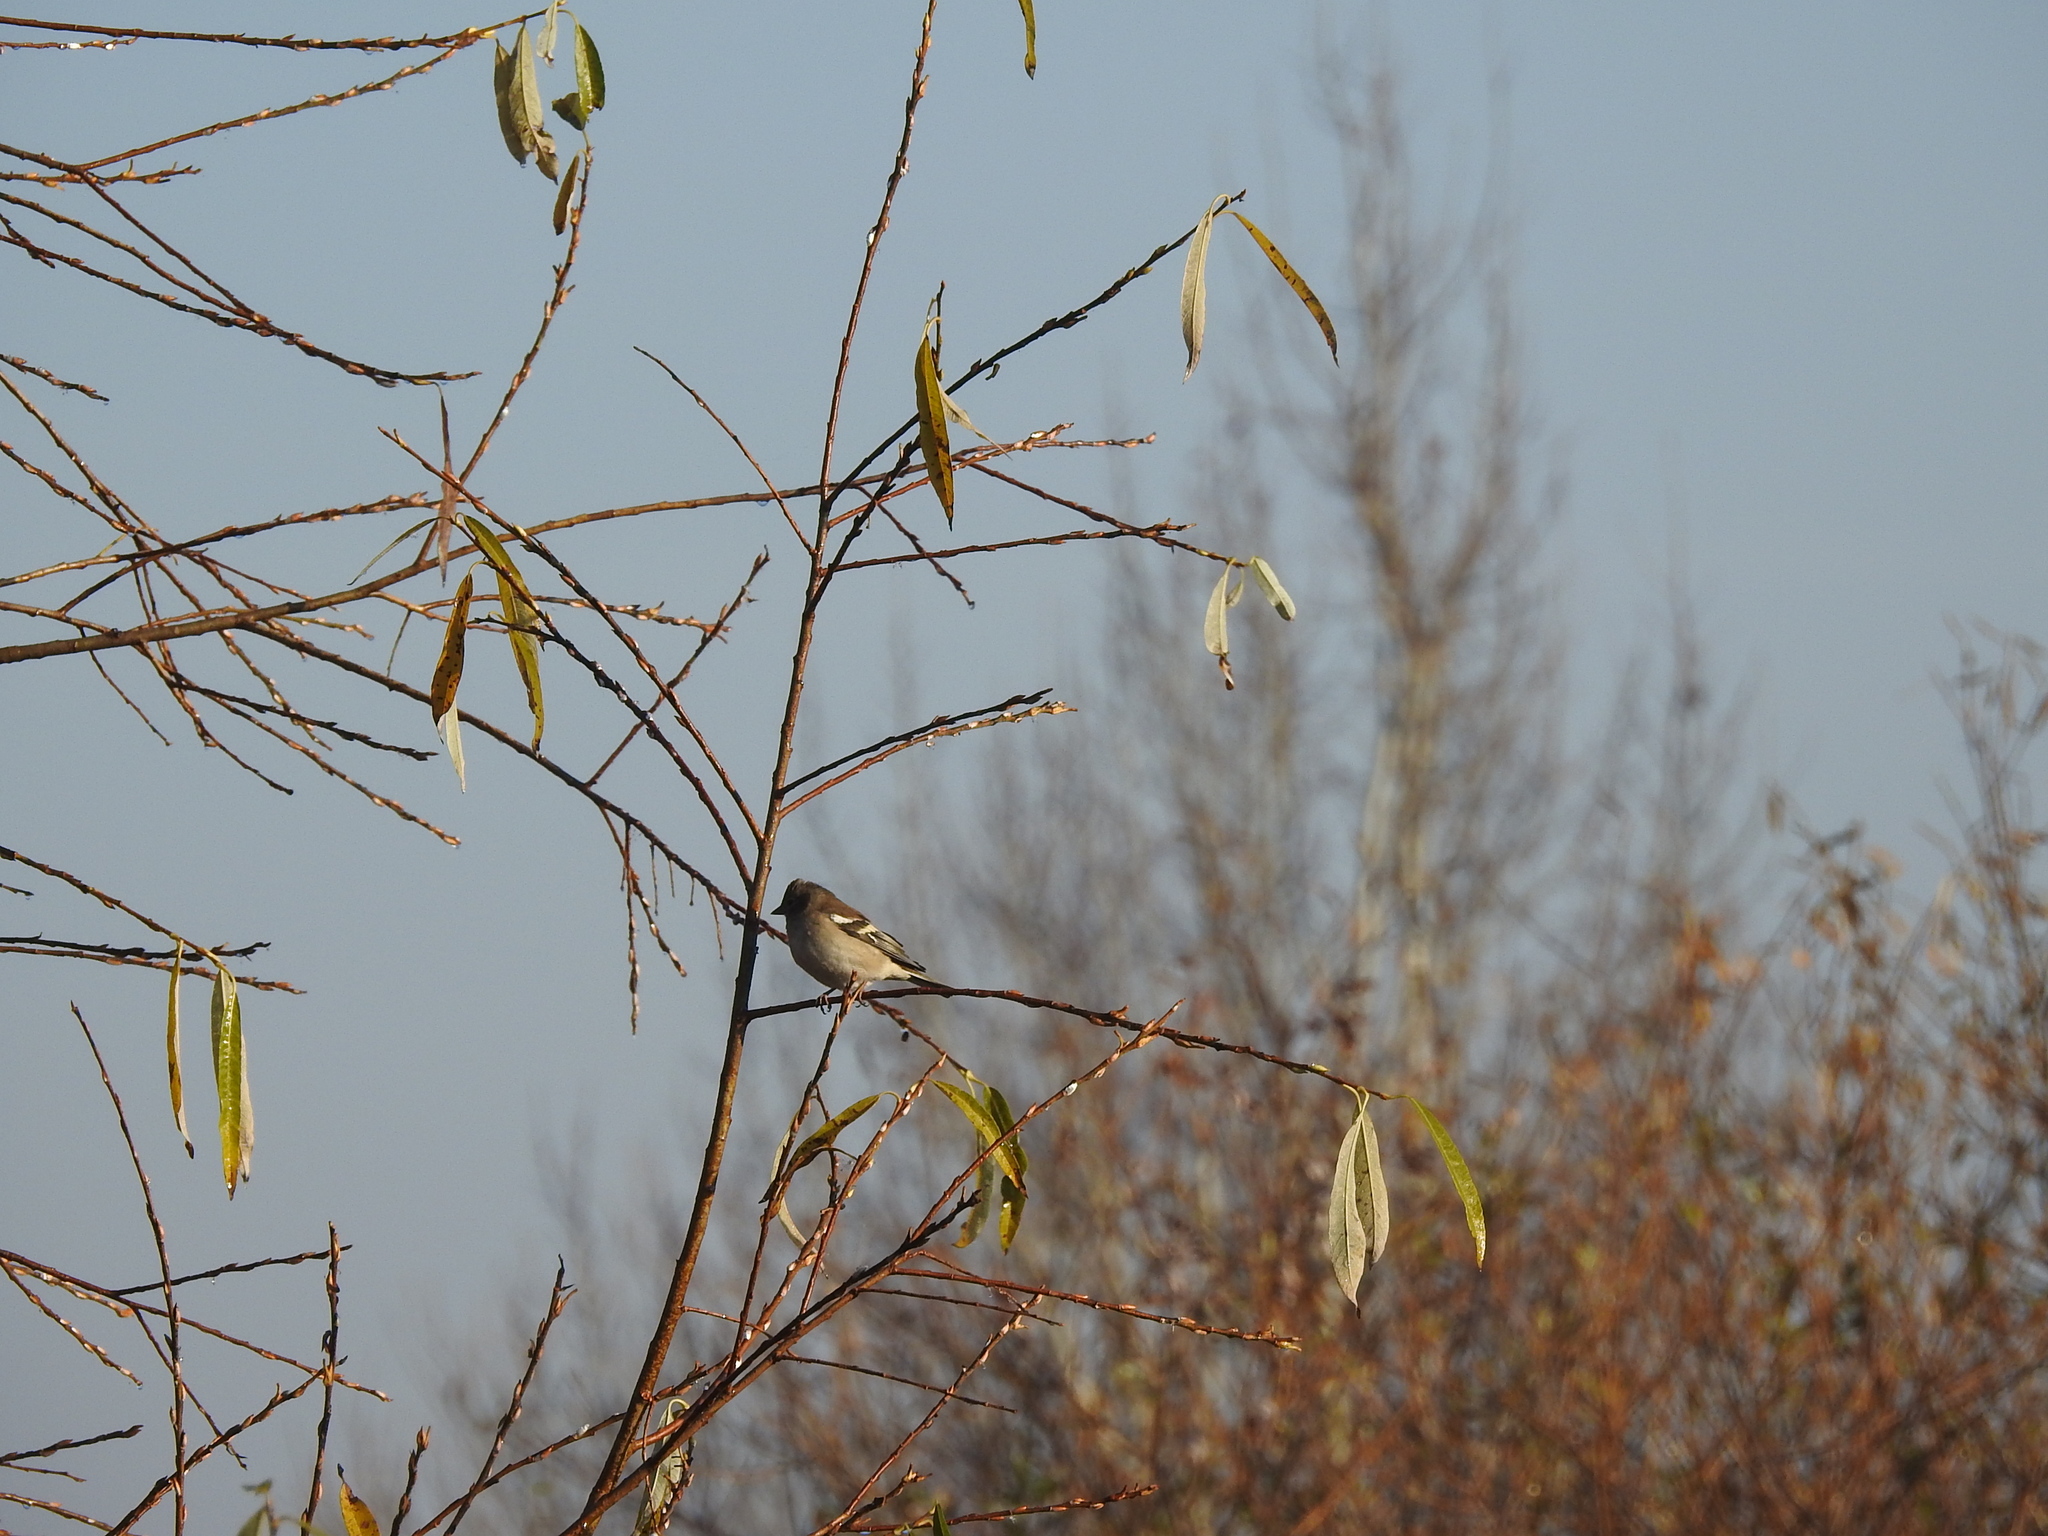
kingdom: Animalia
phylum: Chordata
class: Aves
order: Passeriformes
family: Fringillidae
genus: Fringilla
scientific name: Fringilla coelebs
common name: Common chaffinch
